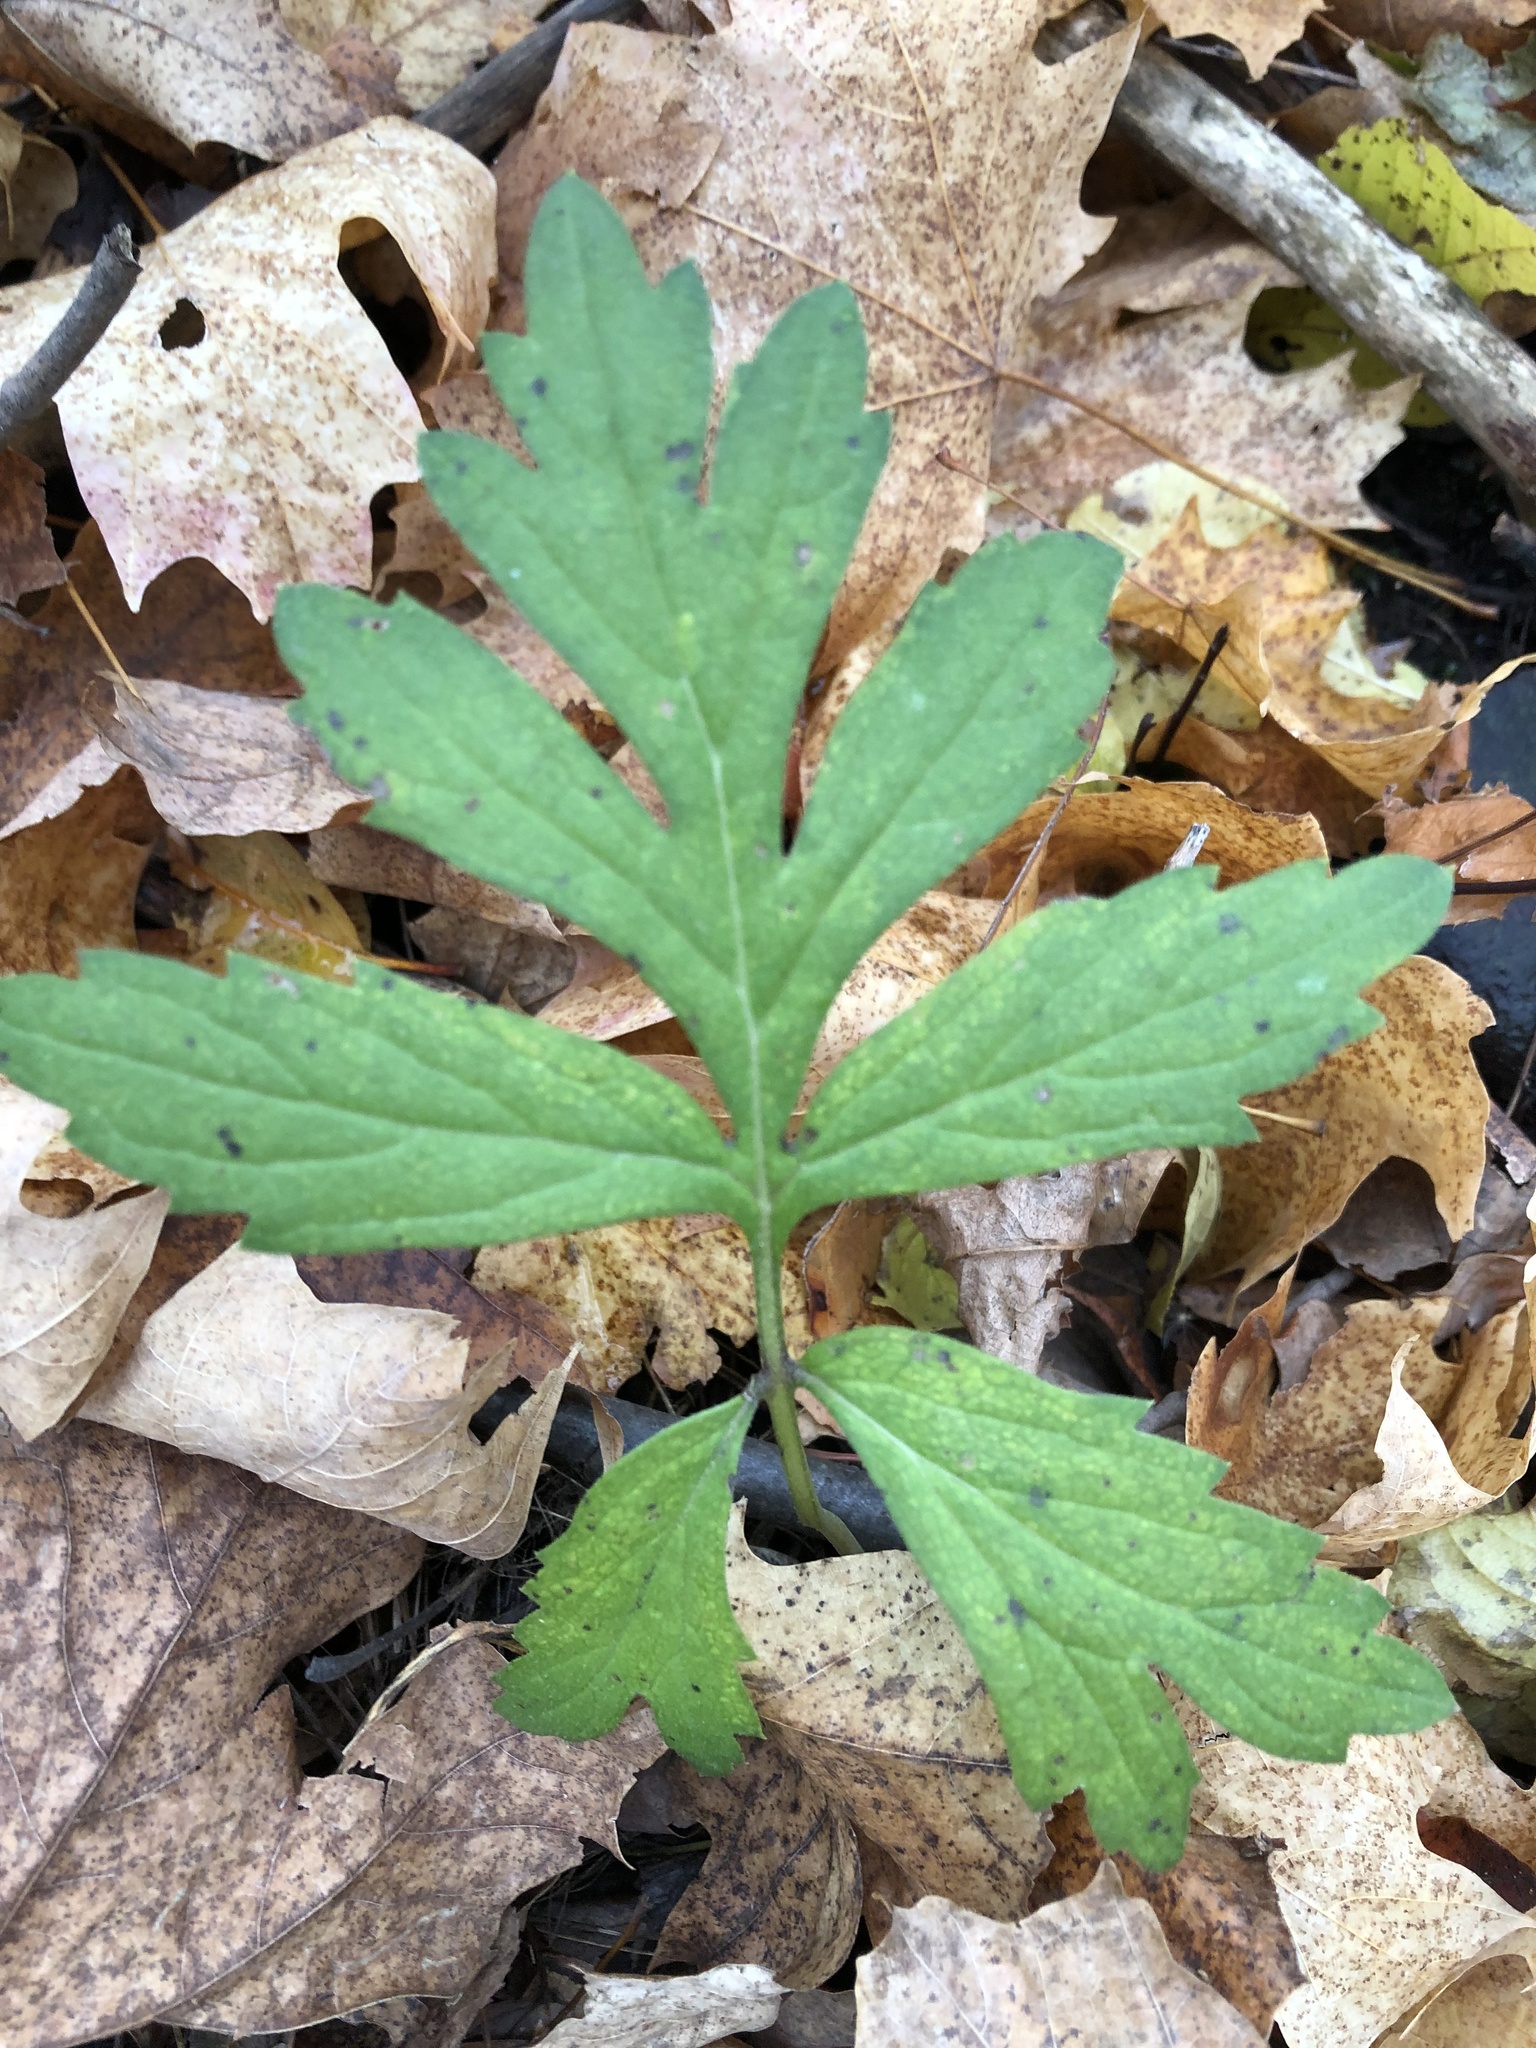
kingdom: Plantae
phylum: Tracheophyta
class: Magnoliopsida
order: Boraginales
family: Hydrophyllaceae
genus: Hydrophyllum
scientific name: Hydrophyllum virginianum
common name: Virginia waterleaf
